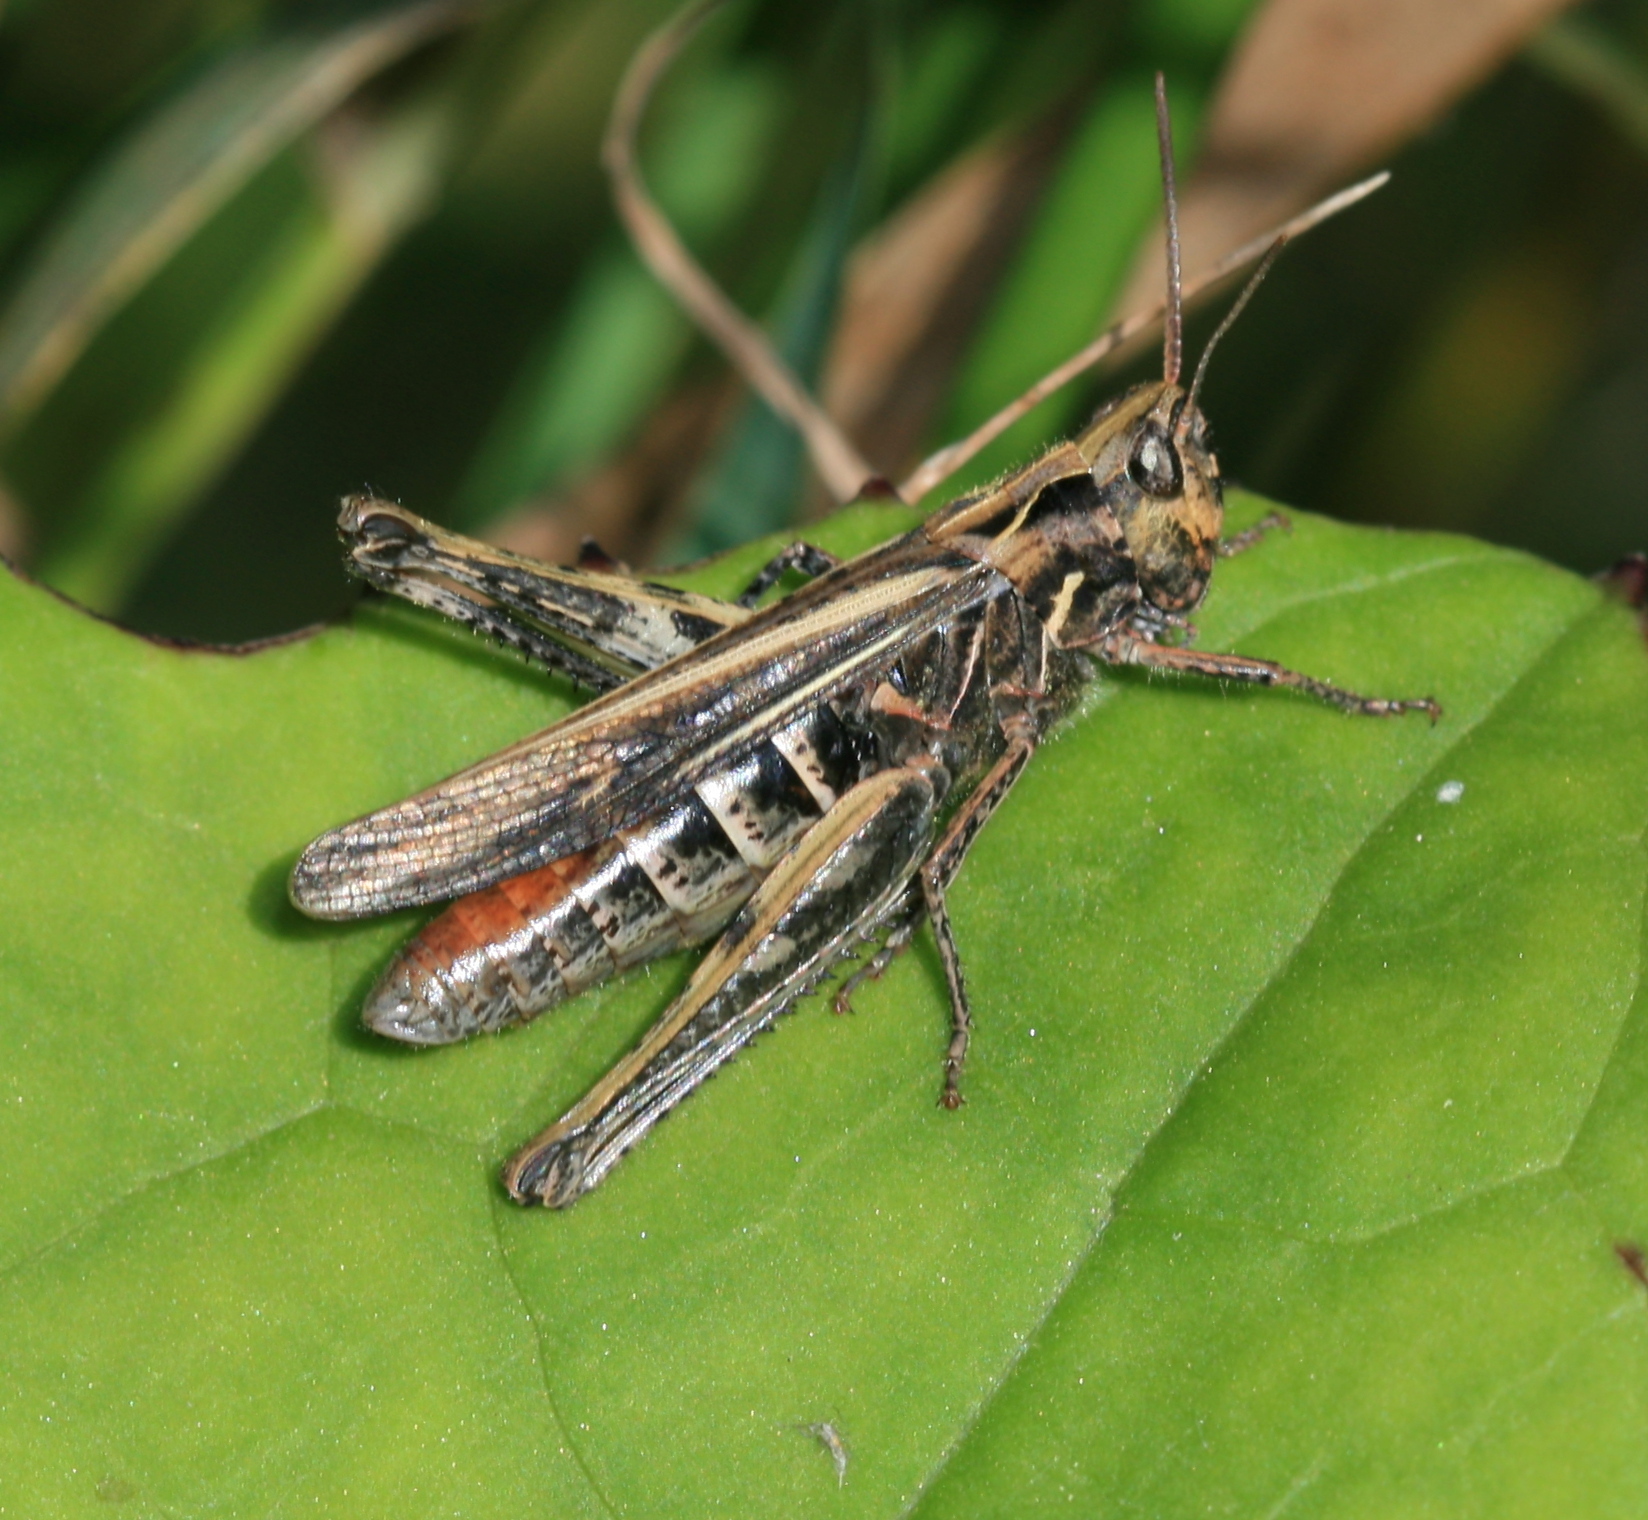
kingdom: Animalia
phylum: Arthropoda
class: Insecta
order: Orthoptera
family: Acrididae
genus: Chorthippus
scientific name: Chorthippus brunneus
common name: Field grasshopper
